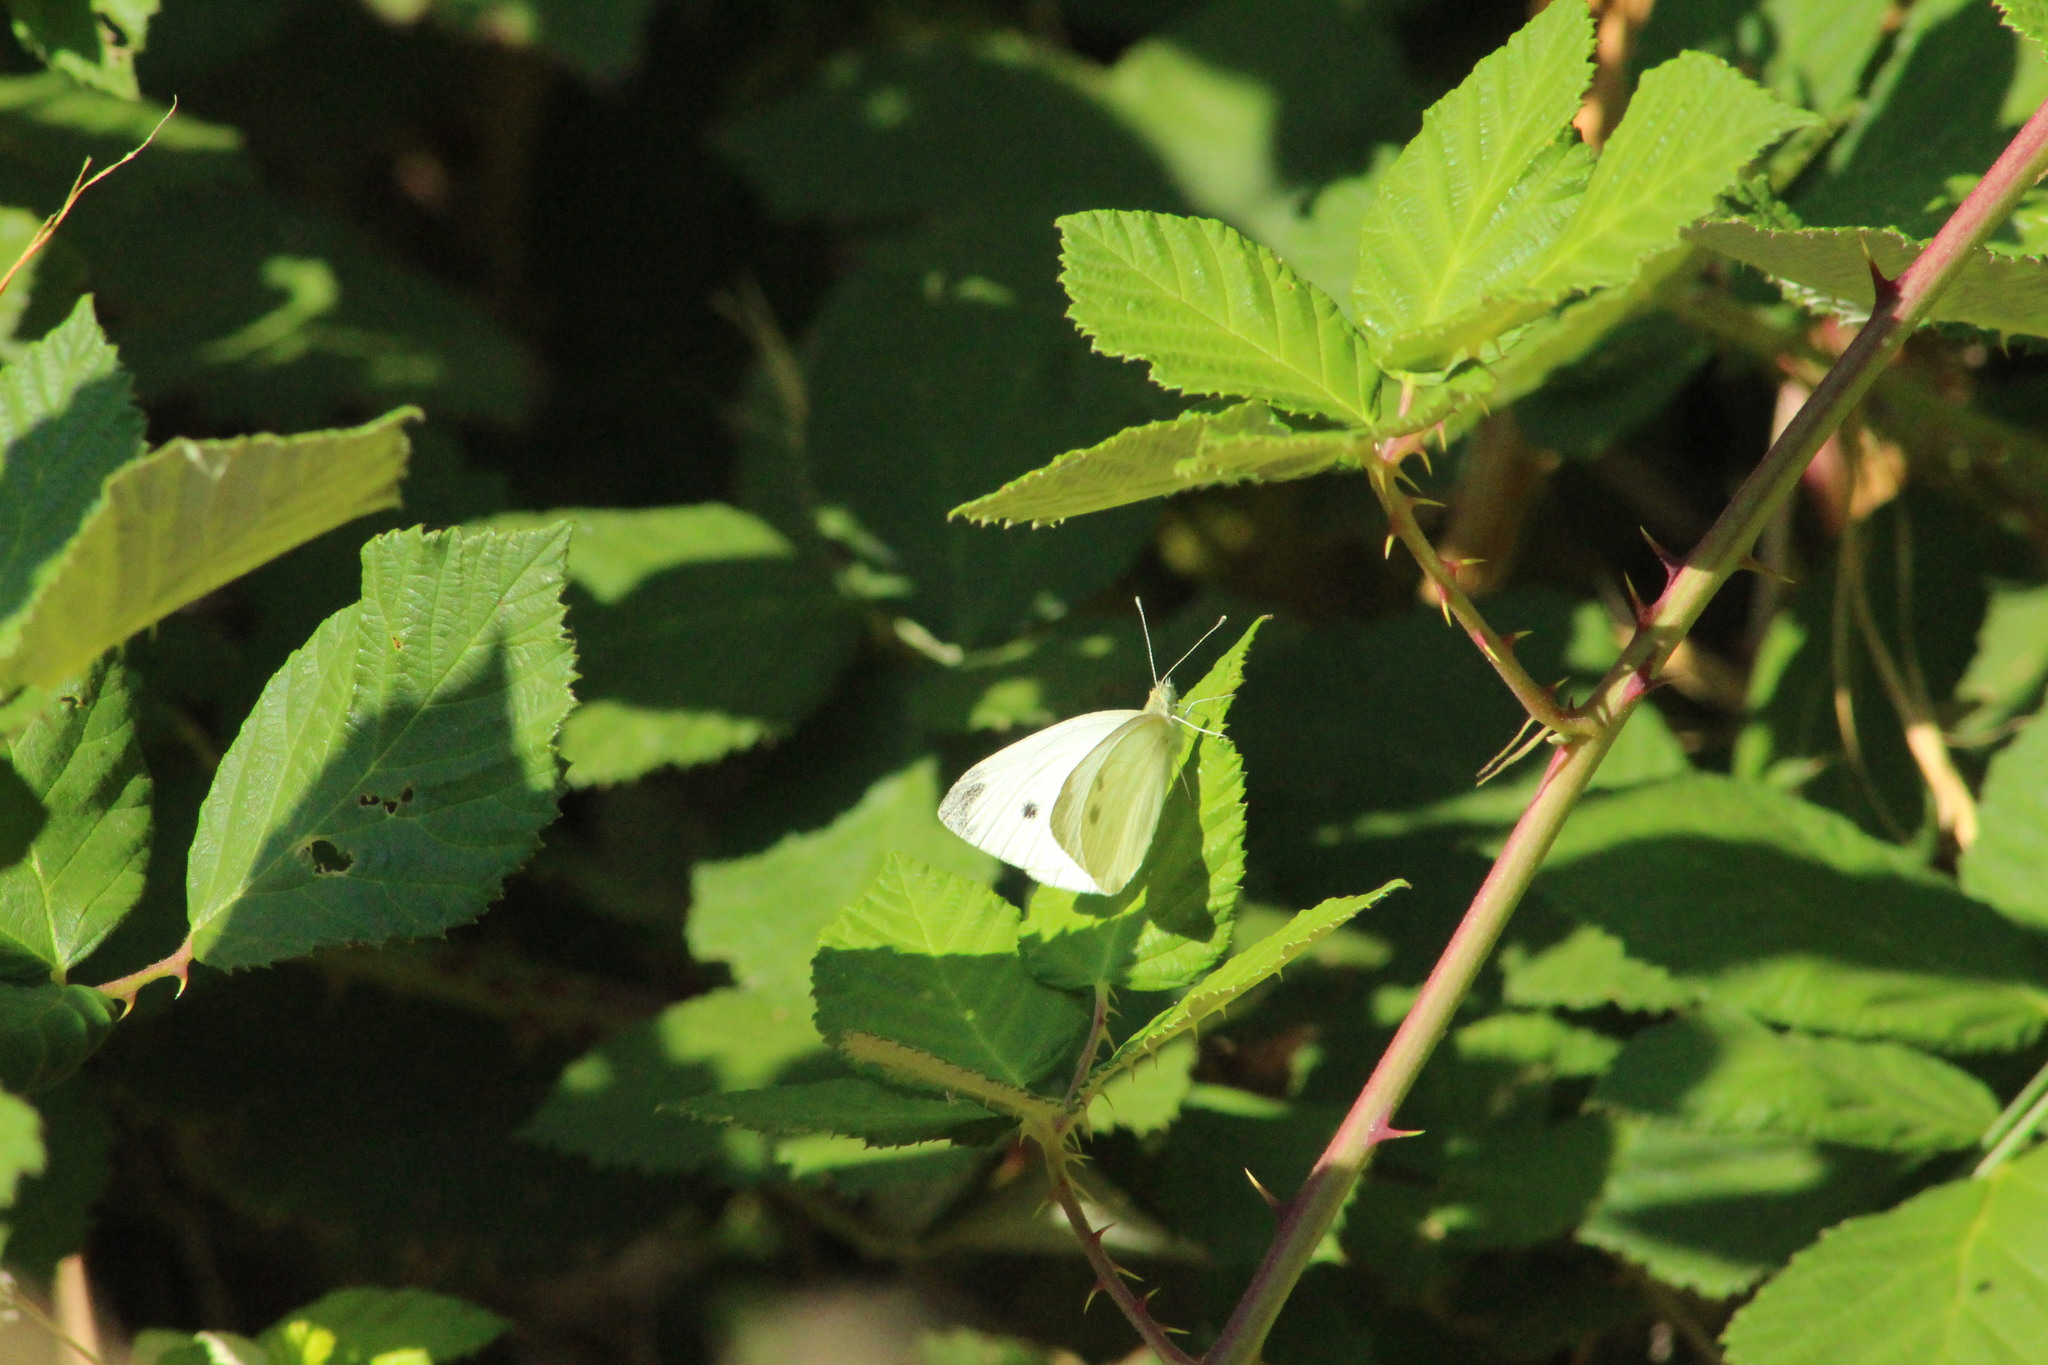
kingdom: Animalia
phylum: Arthropoda
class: Insecta
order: Lepidoptera
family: Pieridae
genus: Pieris
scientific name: Pieris rapae
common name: Small white
